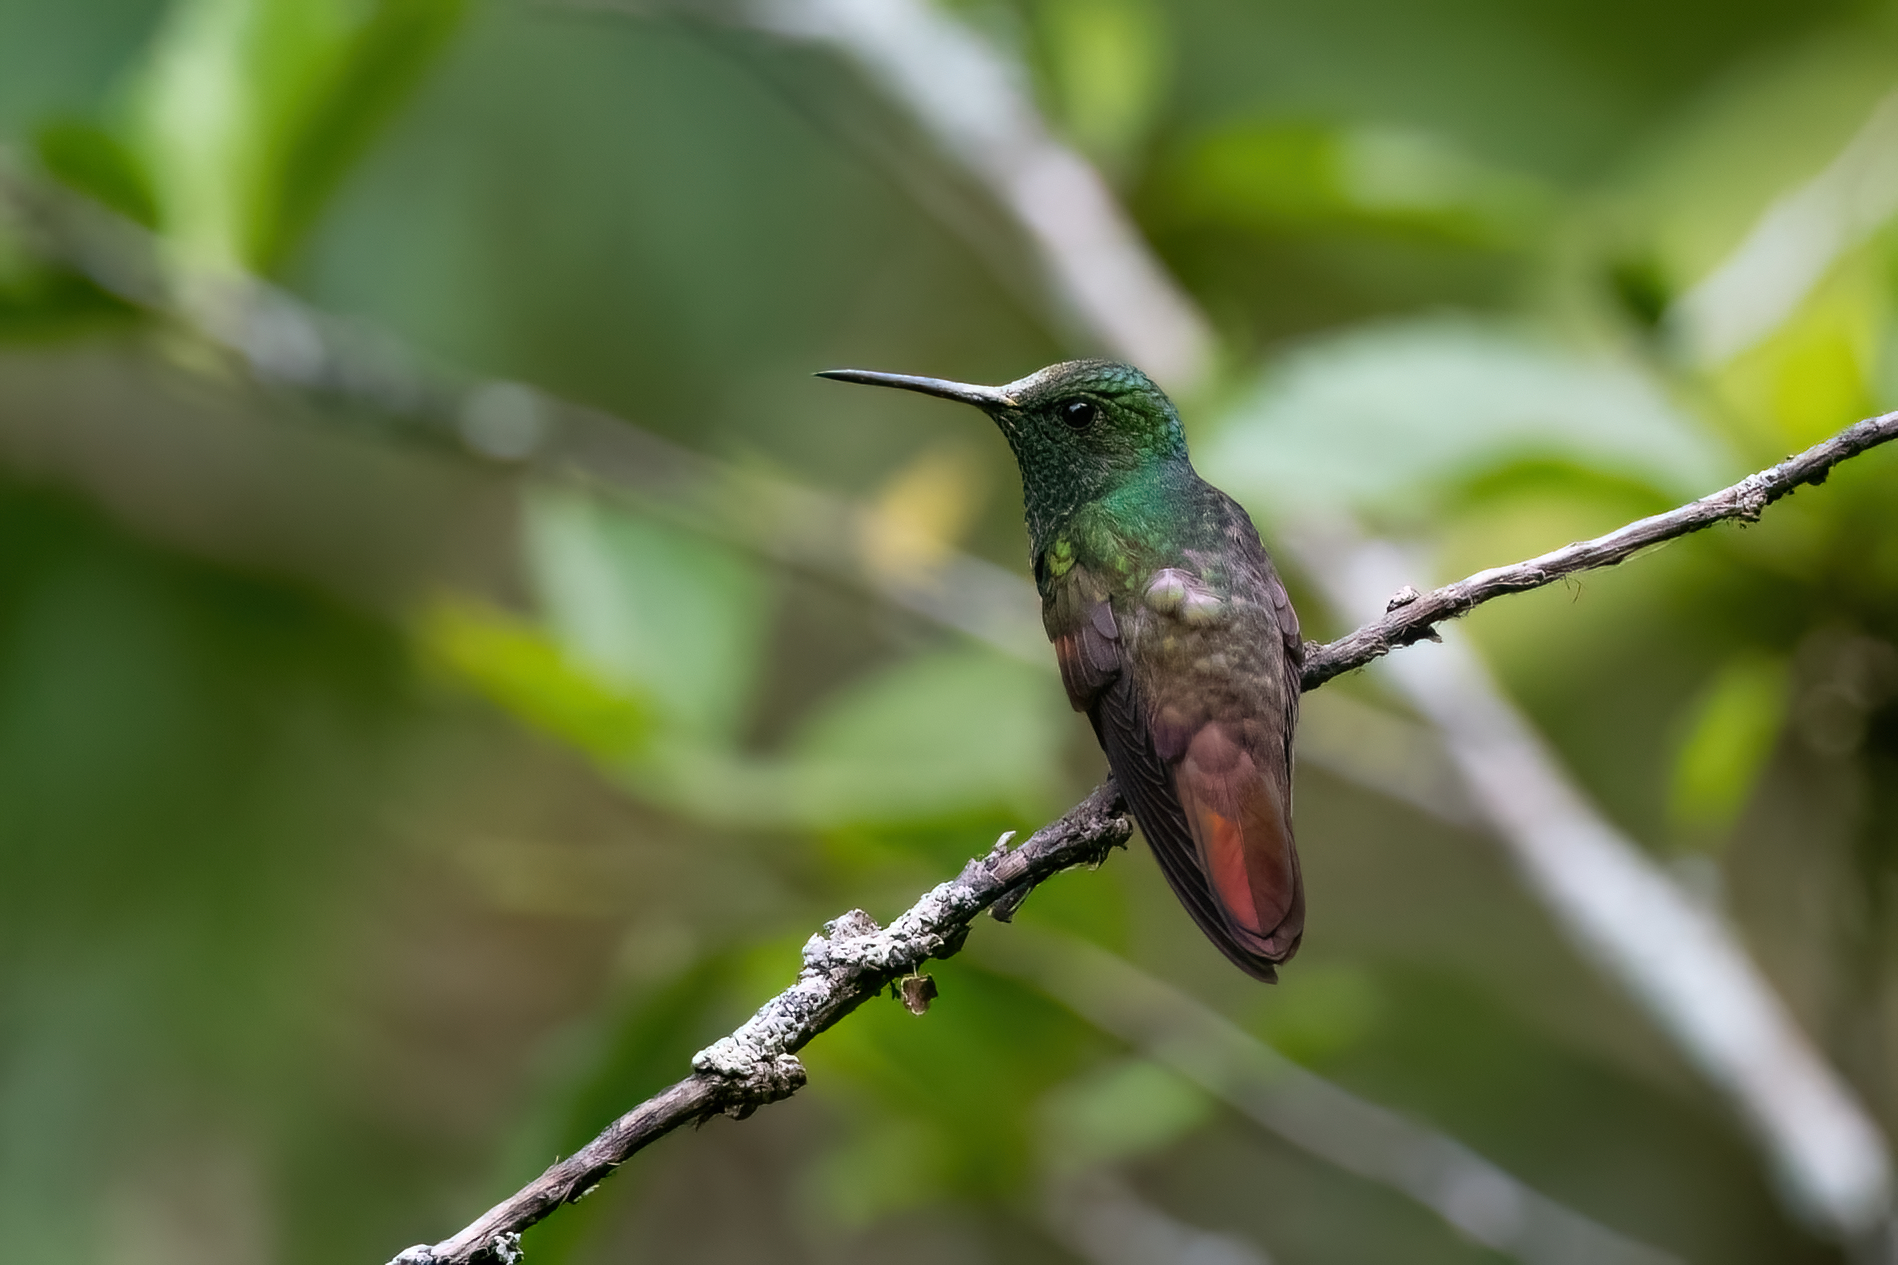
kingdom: Animalia
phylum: Chordata
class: Aves
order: Apodiformes
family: Trochilidae
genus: Saucerottia
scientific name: Saucerottia beryllina
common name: Berylline hummingbird
